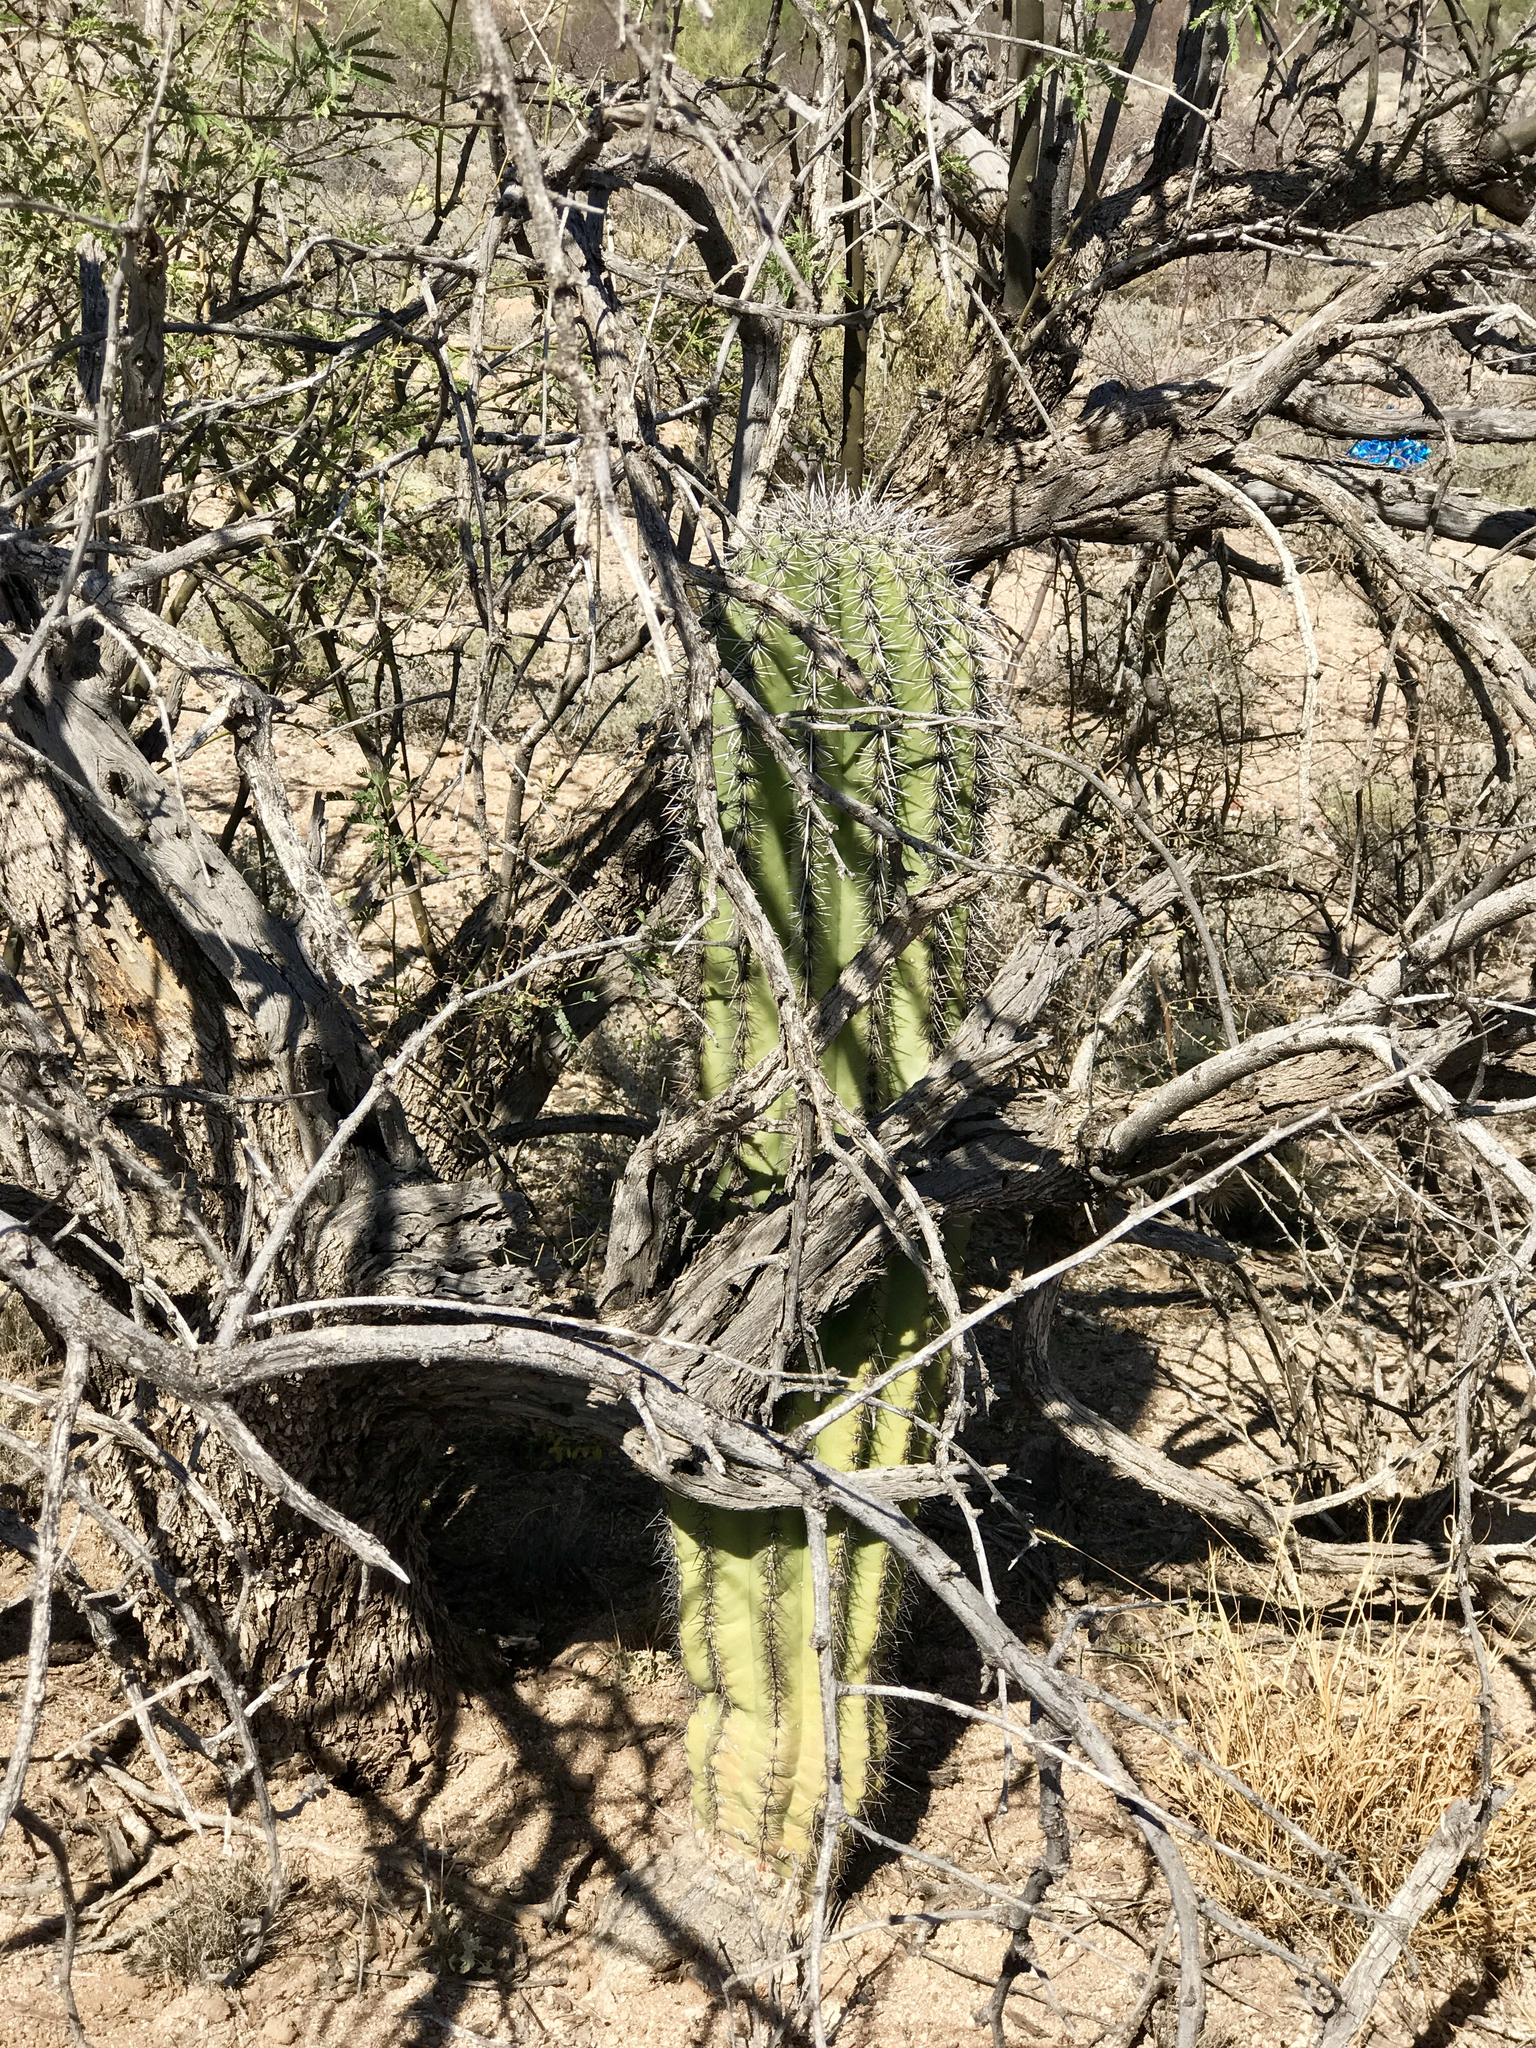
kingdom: Plantae
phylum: Tracheophyta
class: Magnoliopsida
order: Caryophyllales
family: Cactaceae
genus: Carnegiea
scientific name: Carnegiea gigantea
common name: Saguaro
